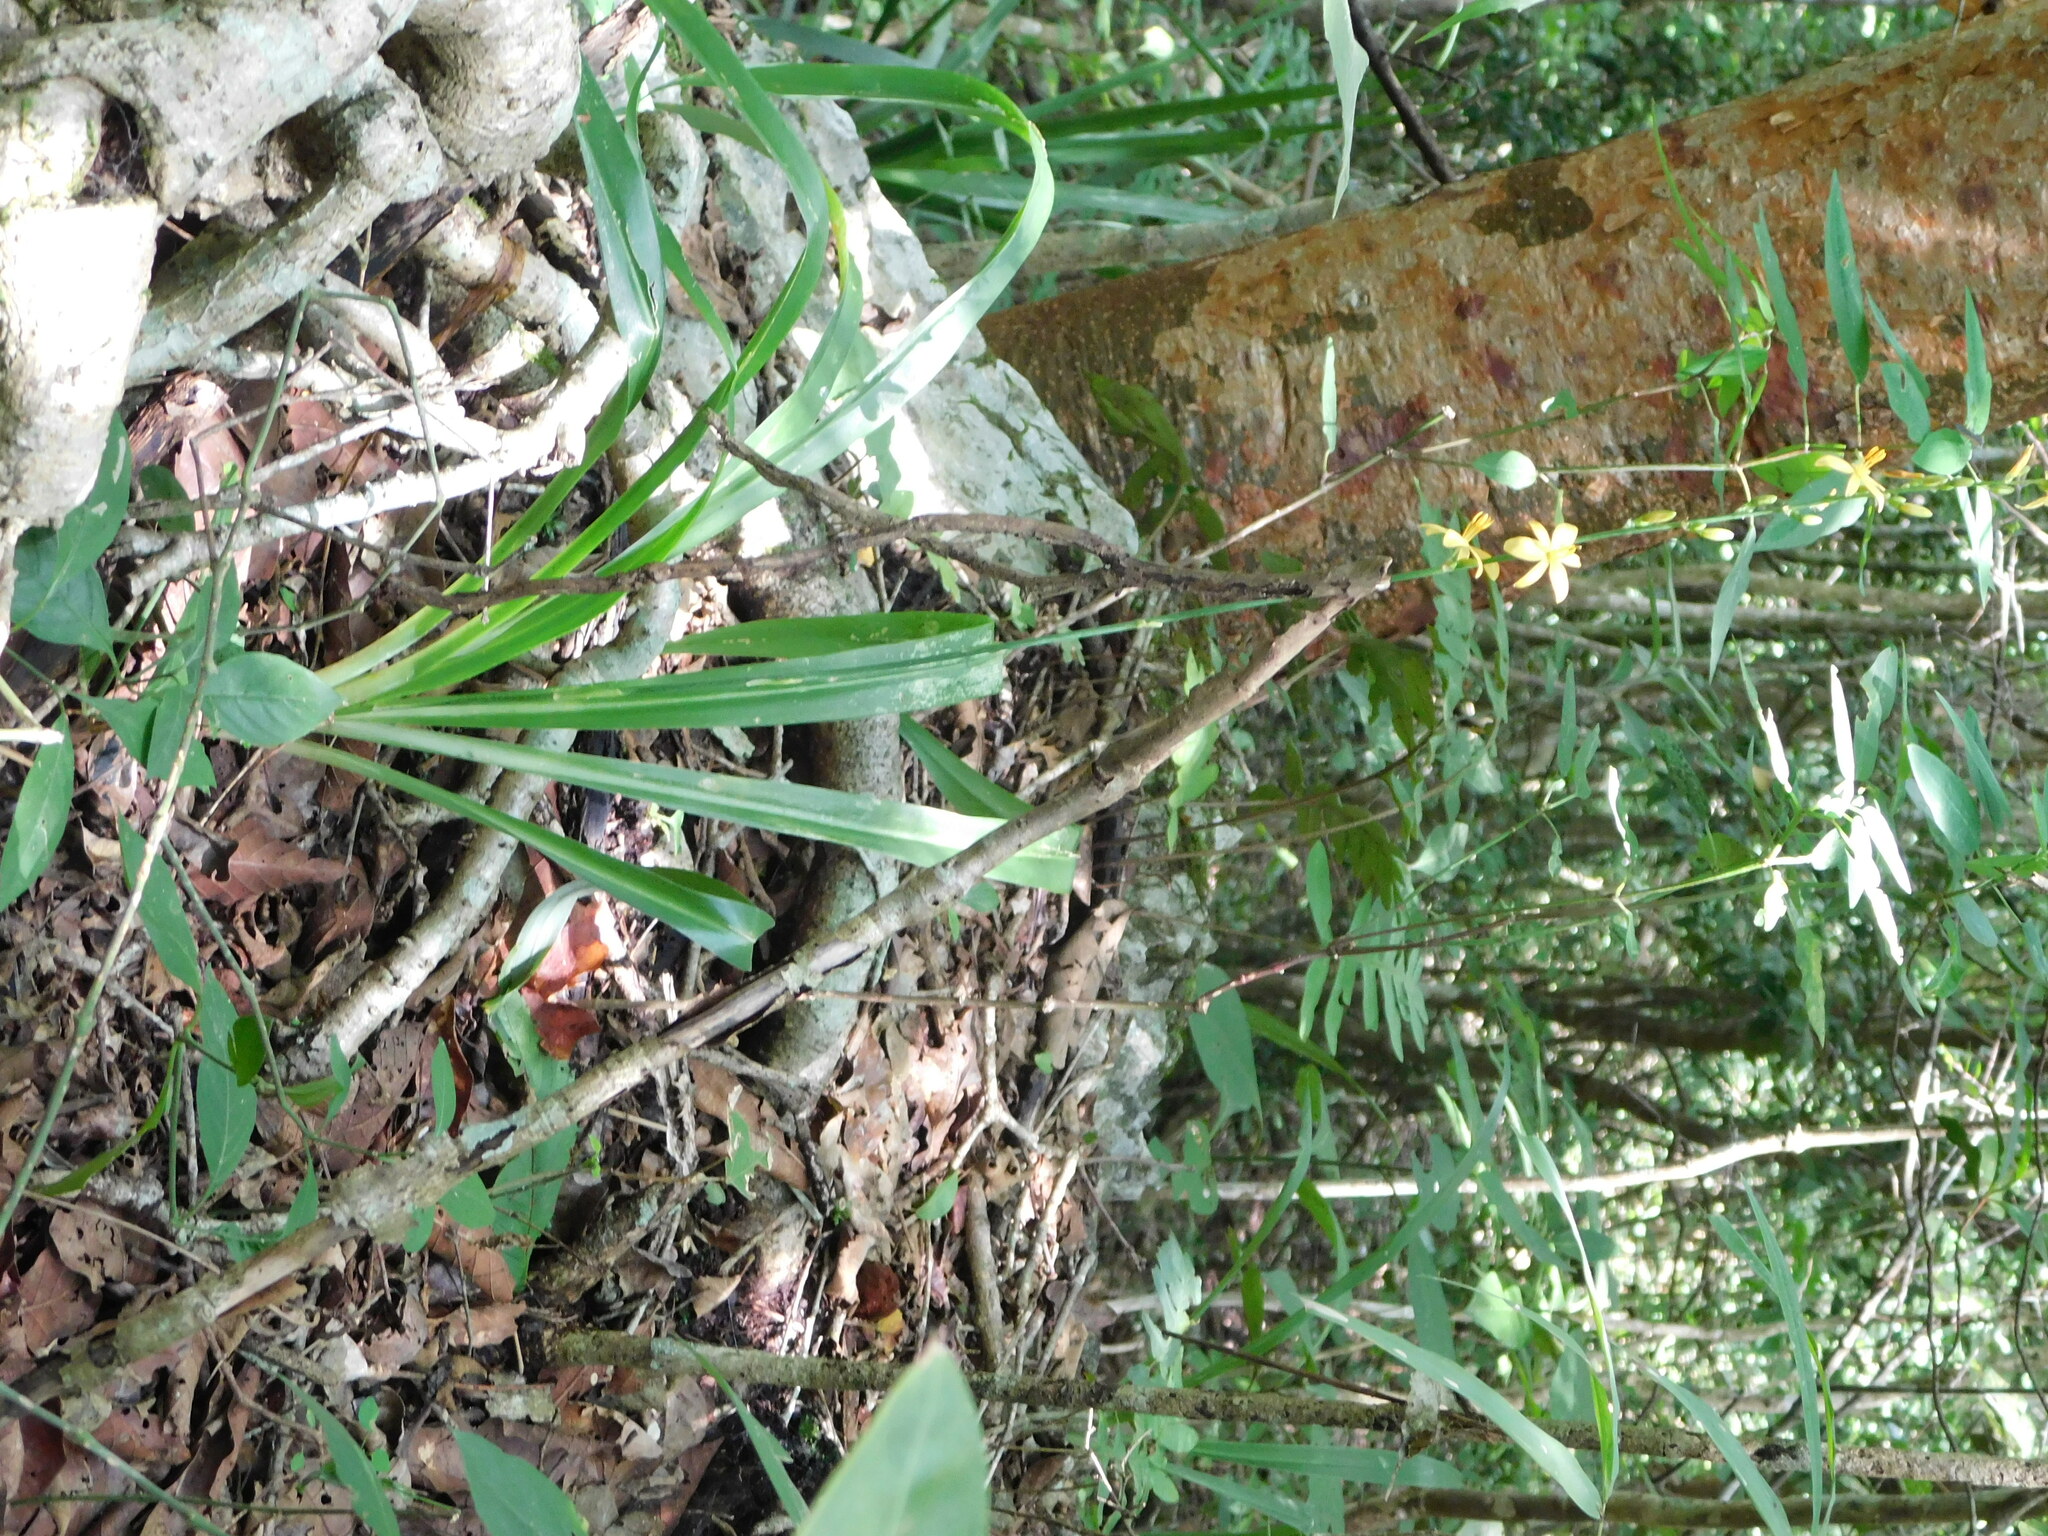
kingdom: Plantae
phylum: Tracheophyta
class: Liliopsida
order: Asparagales
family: Asparagaceae
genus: Echeandia
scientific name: Echeandia breedlovei
